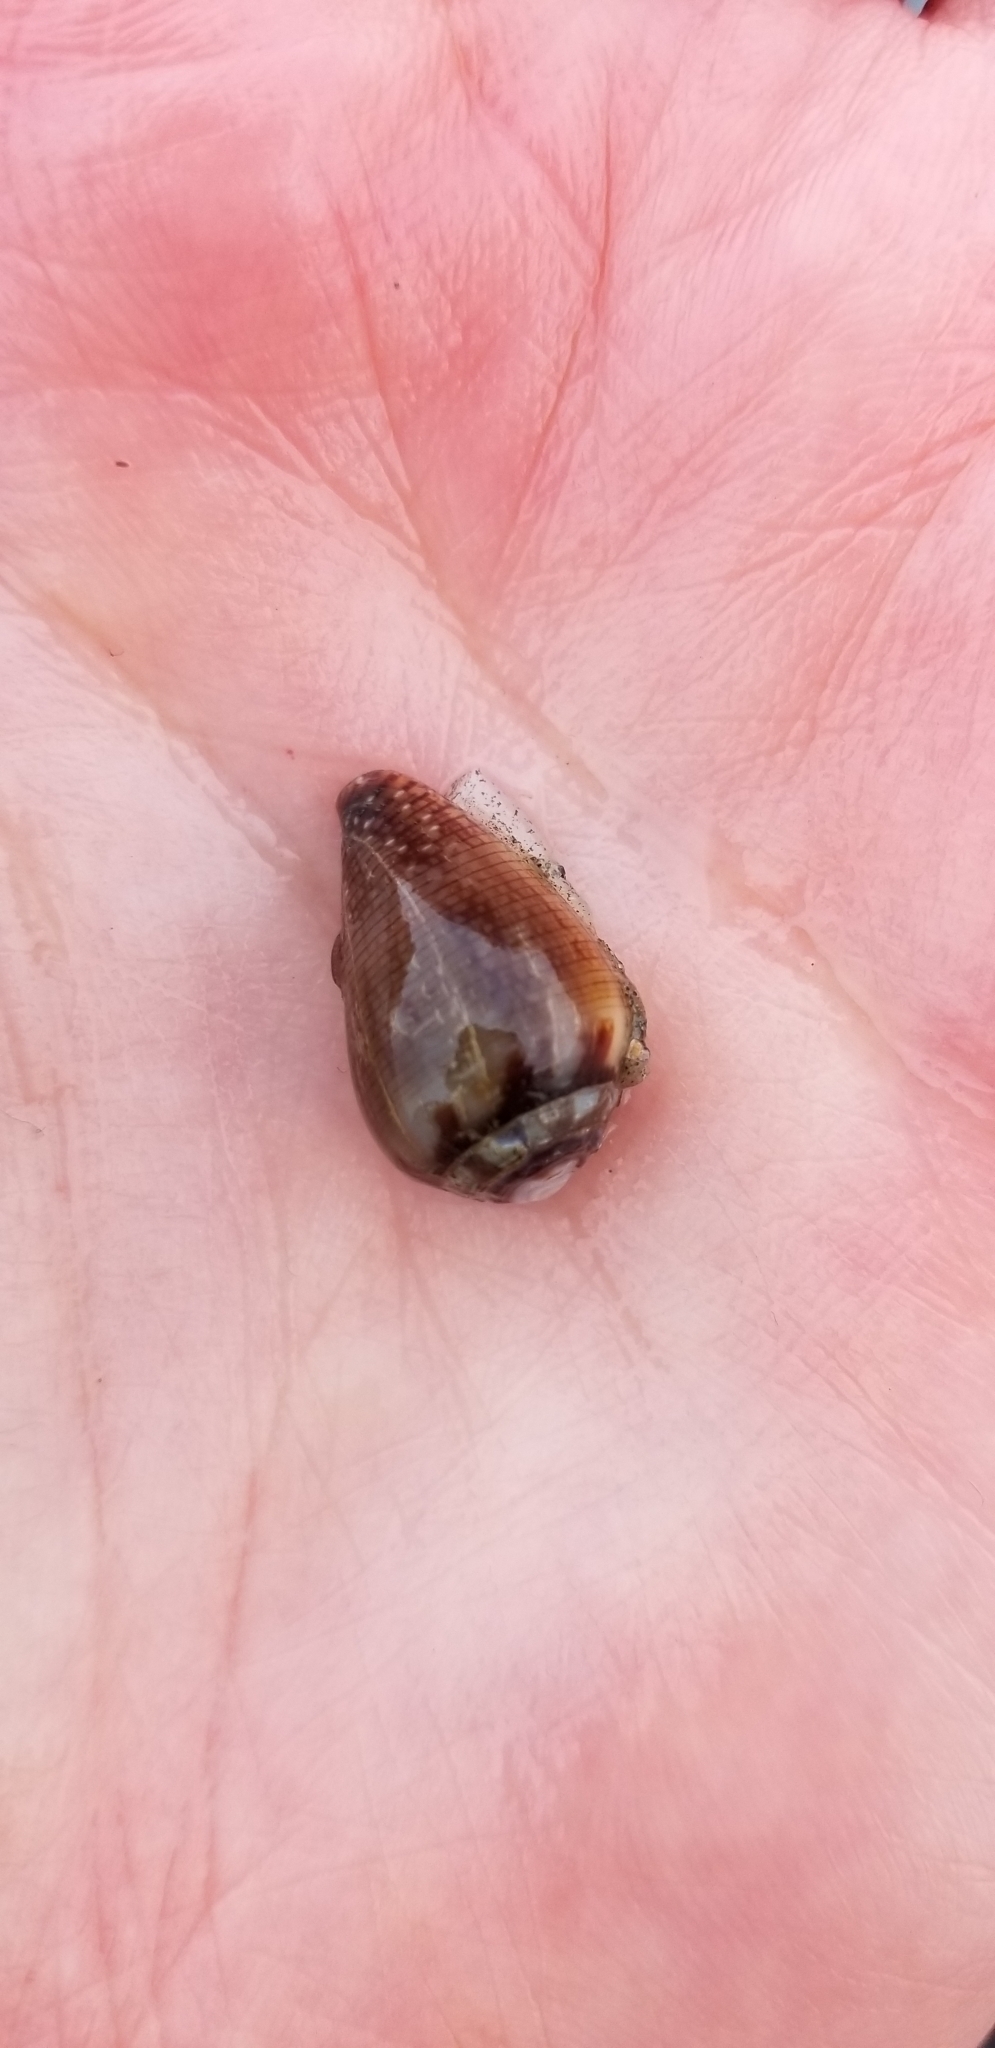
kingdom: Animalia
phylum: Mollusca
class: Gastropoda
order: Neogastropoda
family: Conidae
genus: Californiconus
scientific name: Californiconus californicus
